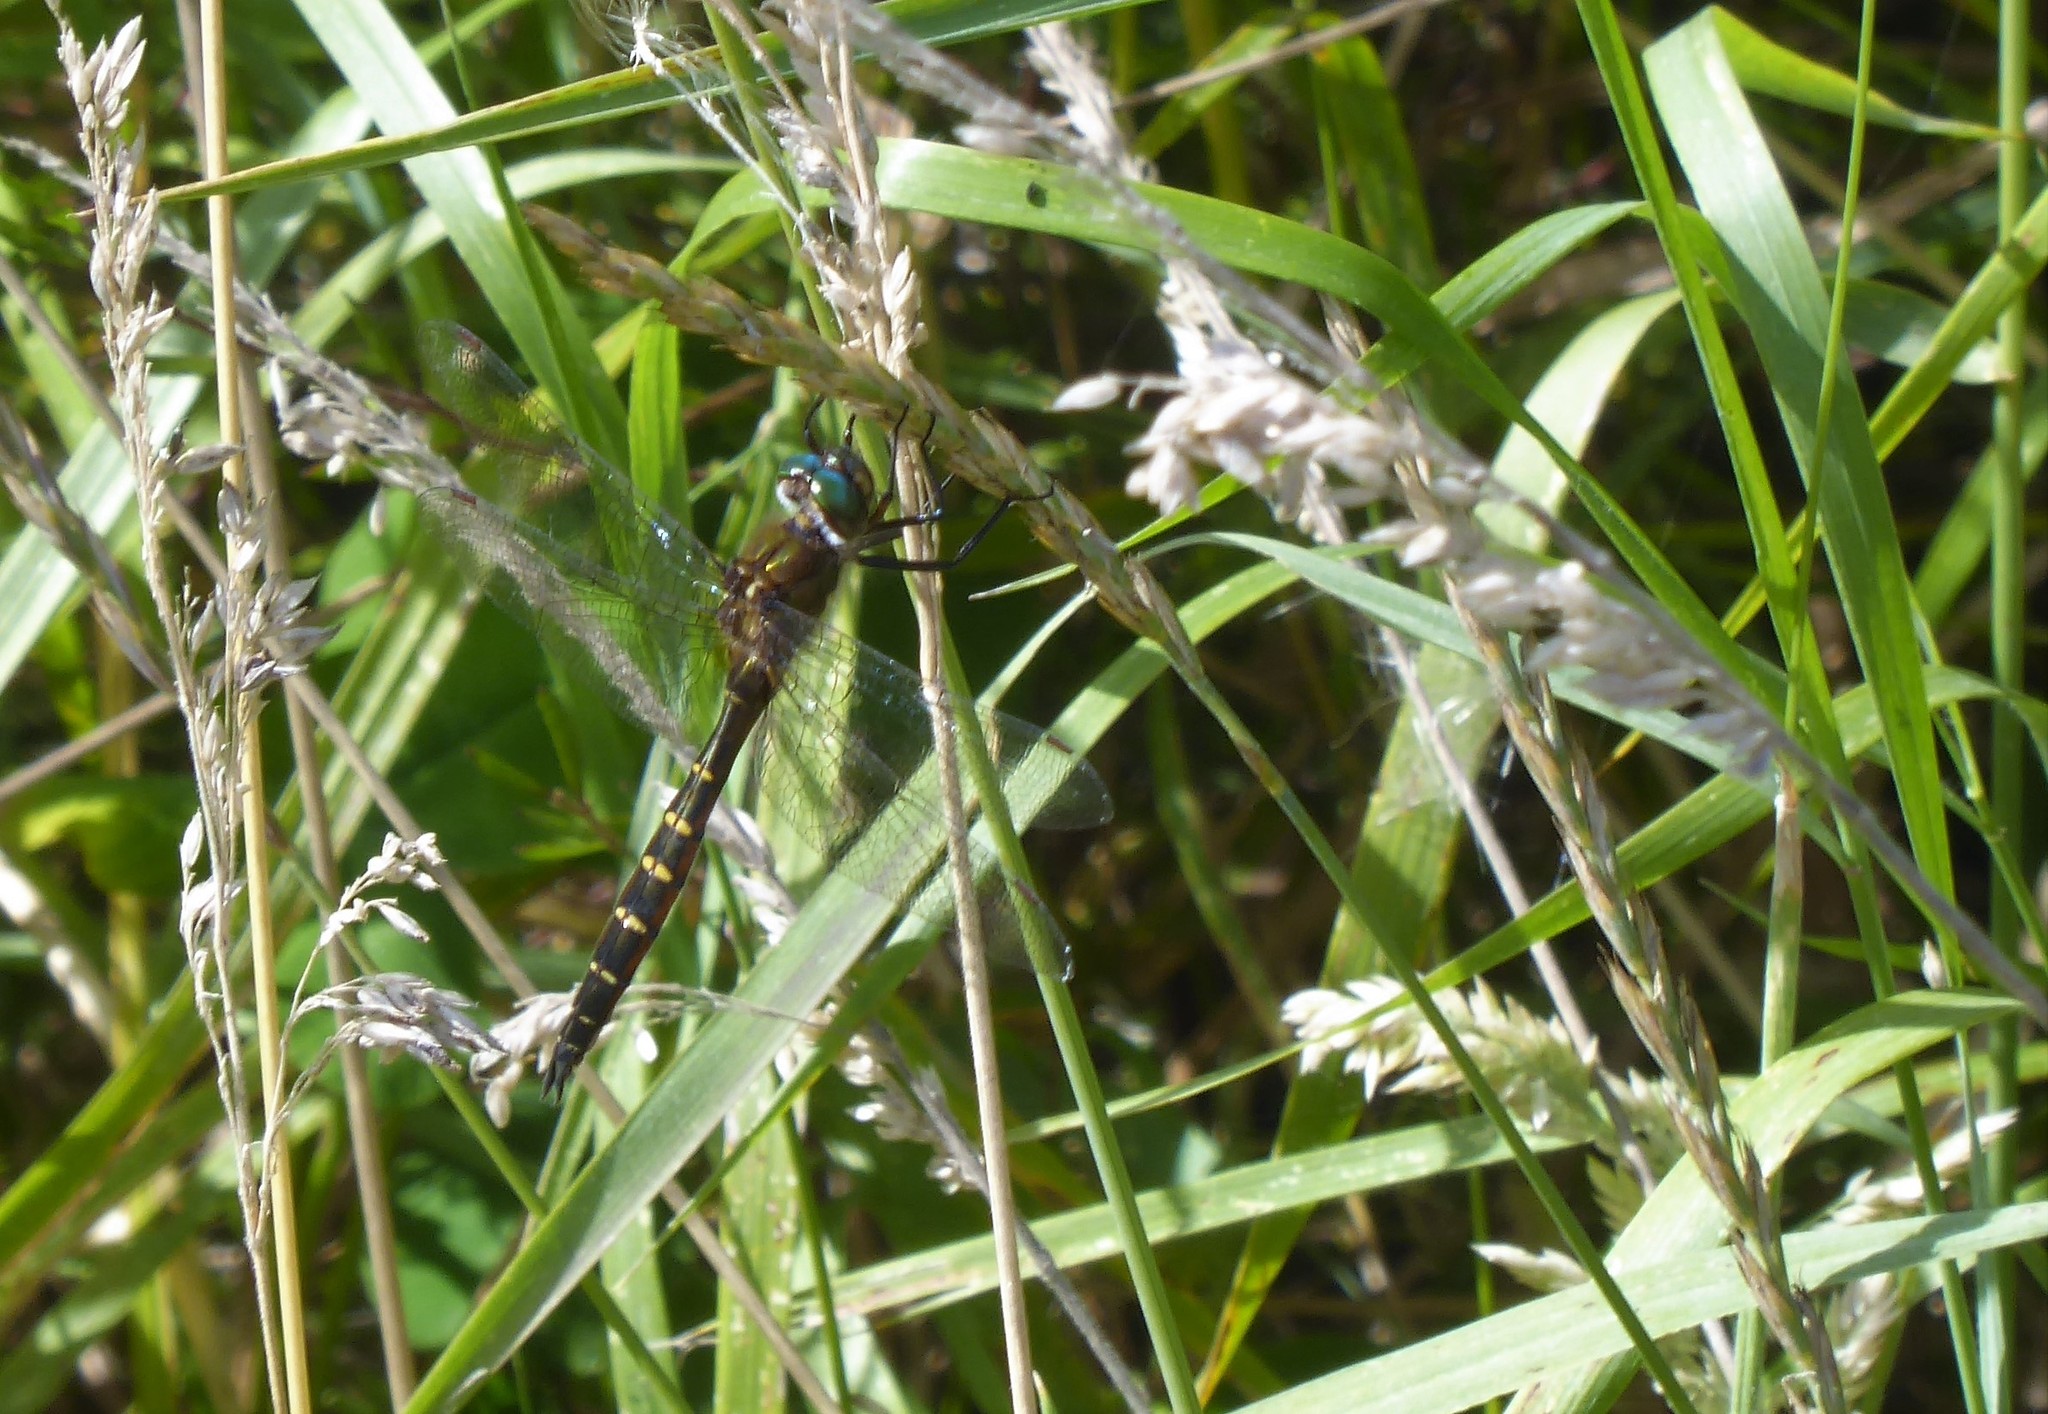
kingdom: Animalia
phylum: Arthropoda
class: Insecta
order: Odonata
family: Corduliidae
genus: Procordulia
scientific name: Procordulia smithii
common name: Ranger dragonfly
